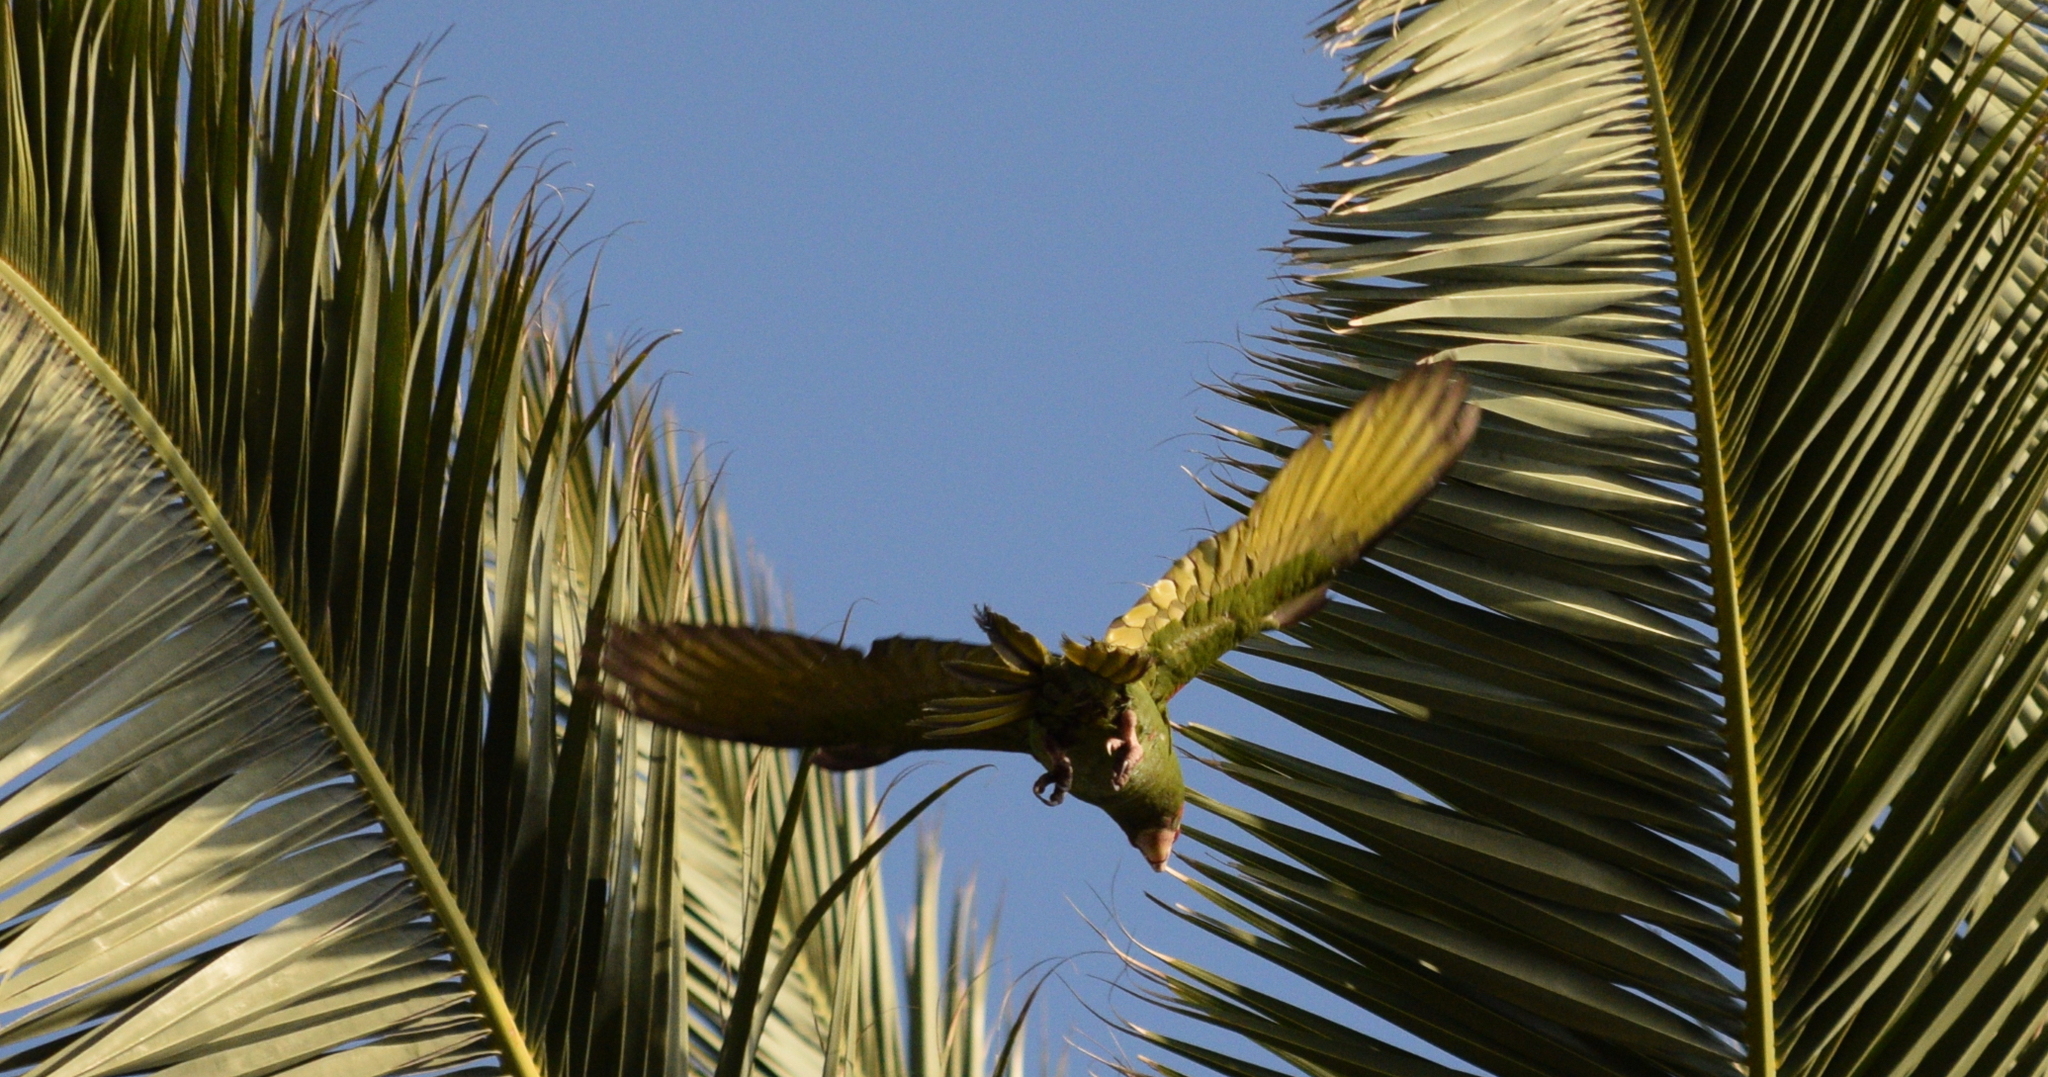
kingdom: Animalia
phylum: Chordata
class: Aves
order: Psittaciformes
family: Psittacidae
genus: Aratinga
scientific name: Aratinga mitrata
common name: Mitred parakeet
